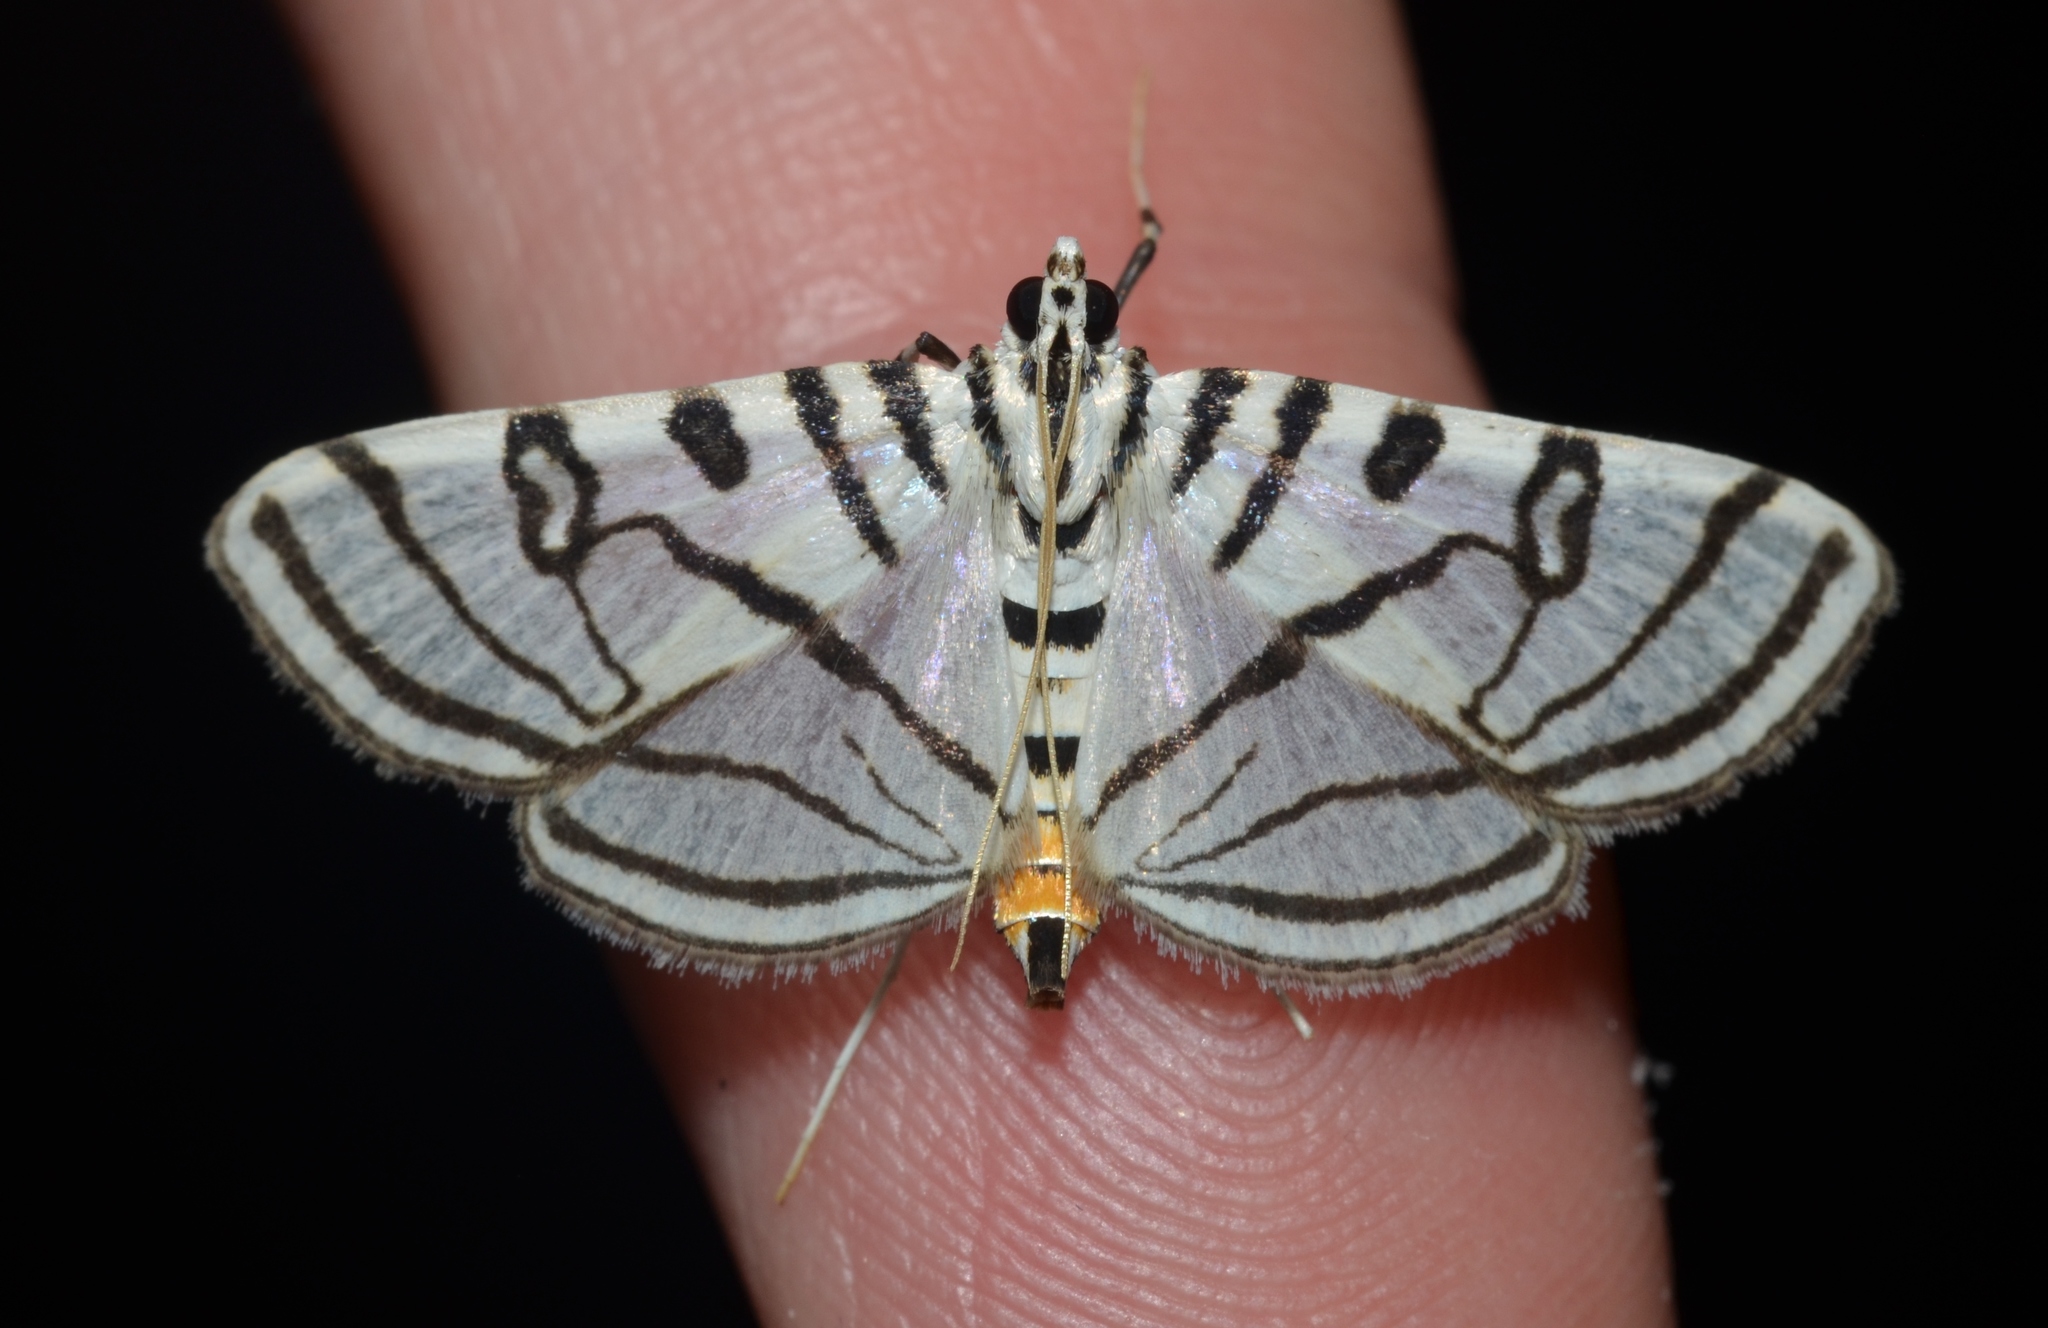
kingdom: Animalia
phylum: Arthropoda
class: Insecta
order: Lepidoptera
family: Crambidae
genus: Conchylodes
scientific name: Conchylodes ovulalis
